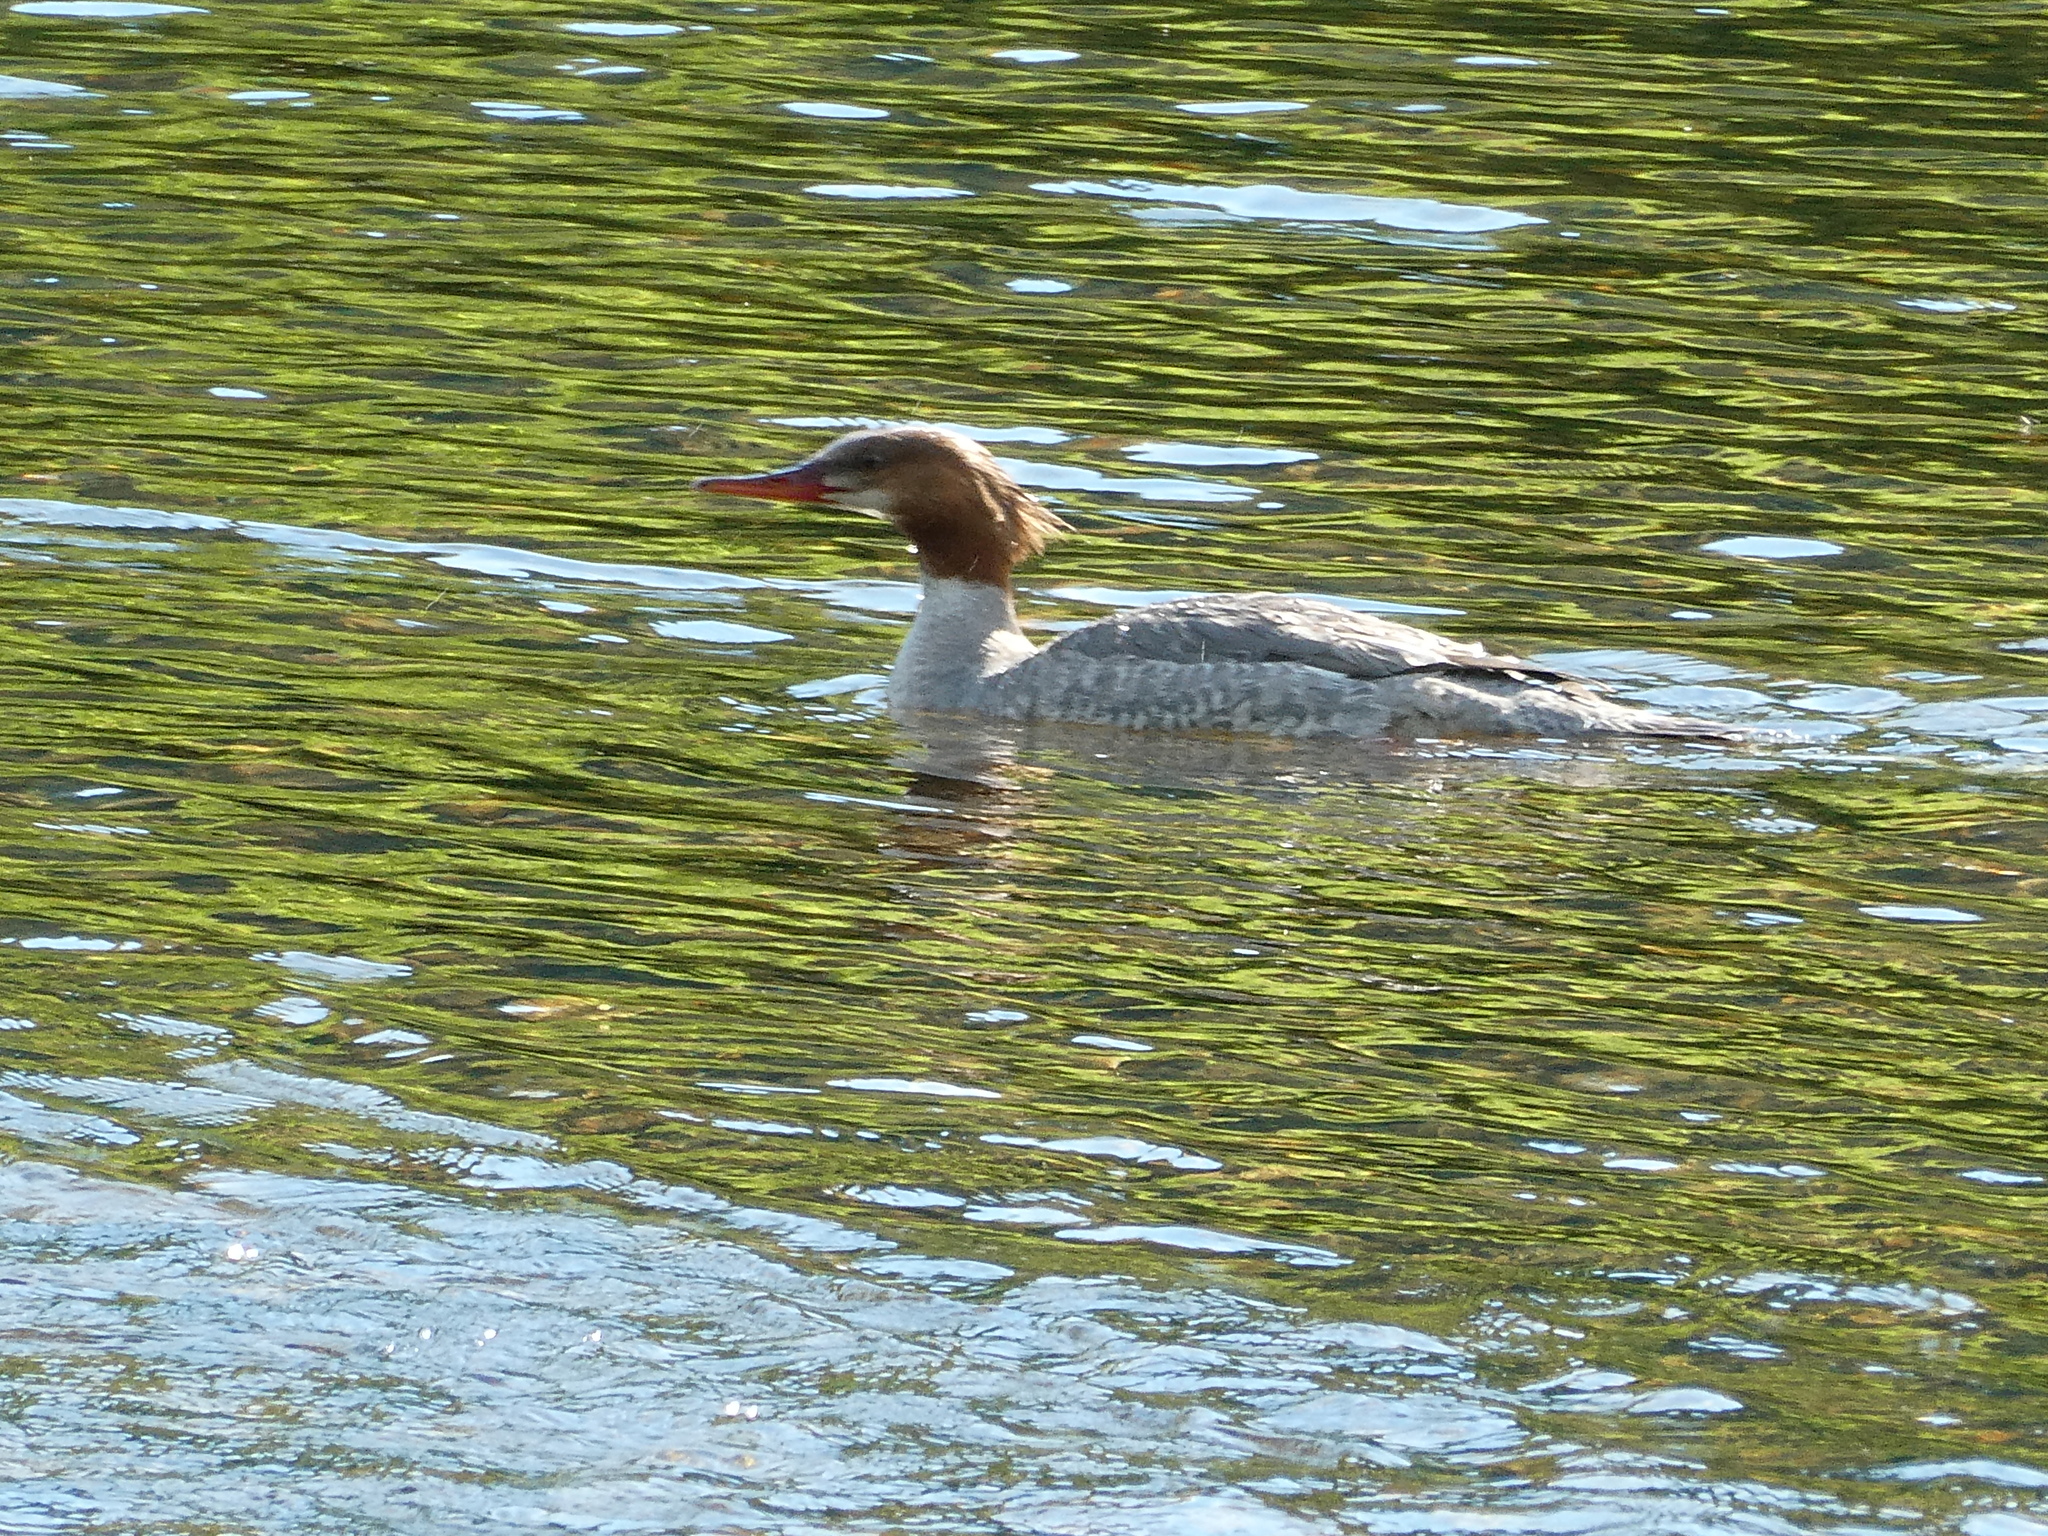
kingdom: Animalia
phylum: Chordata
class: Aves
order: Anseriformes
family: Anatidae
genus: Mergus
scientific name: Mergus merganser
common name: Common merganser
